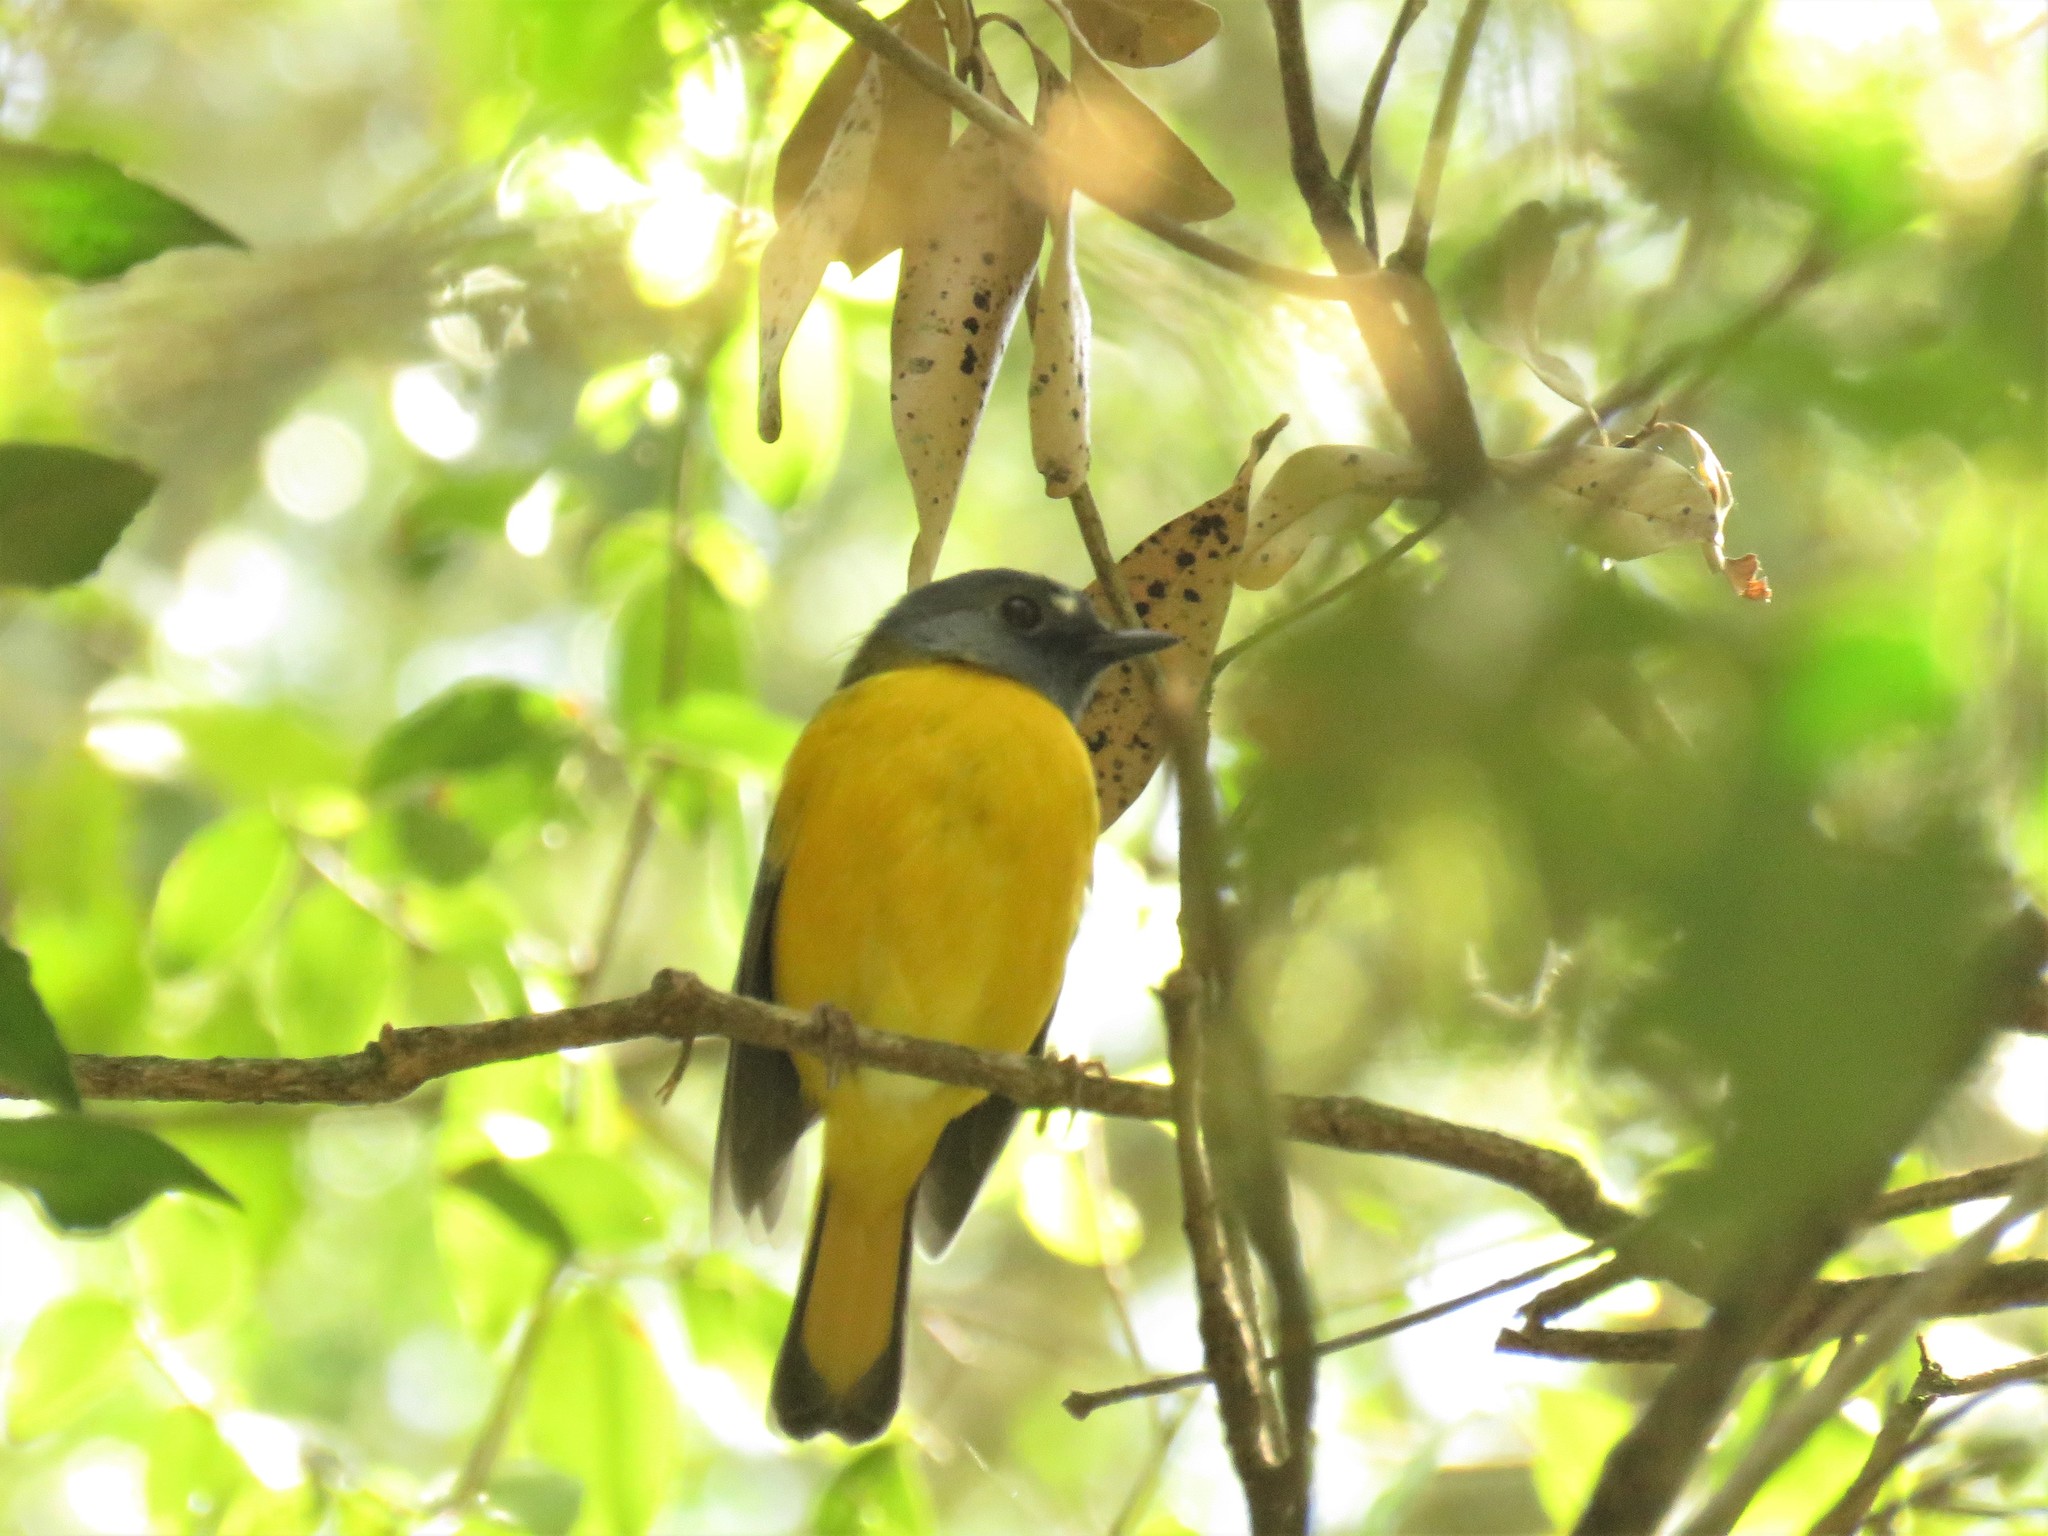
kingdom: Animalia
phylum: Chordata
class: Aves
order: Passeriformes
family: Muscicapidae
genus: Pogonocichla
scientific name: Pogonocichla stellata
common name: White-starred robin
